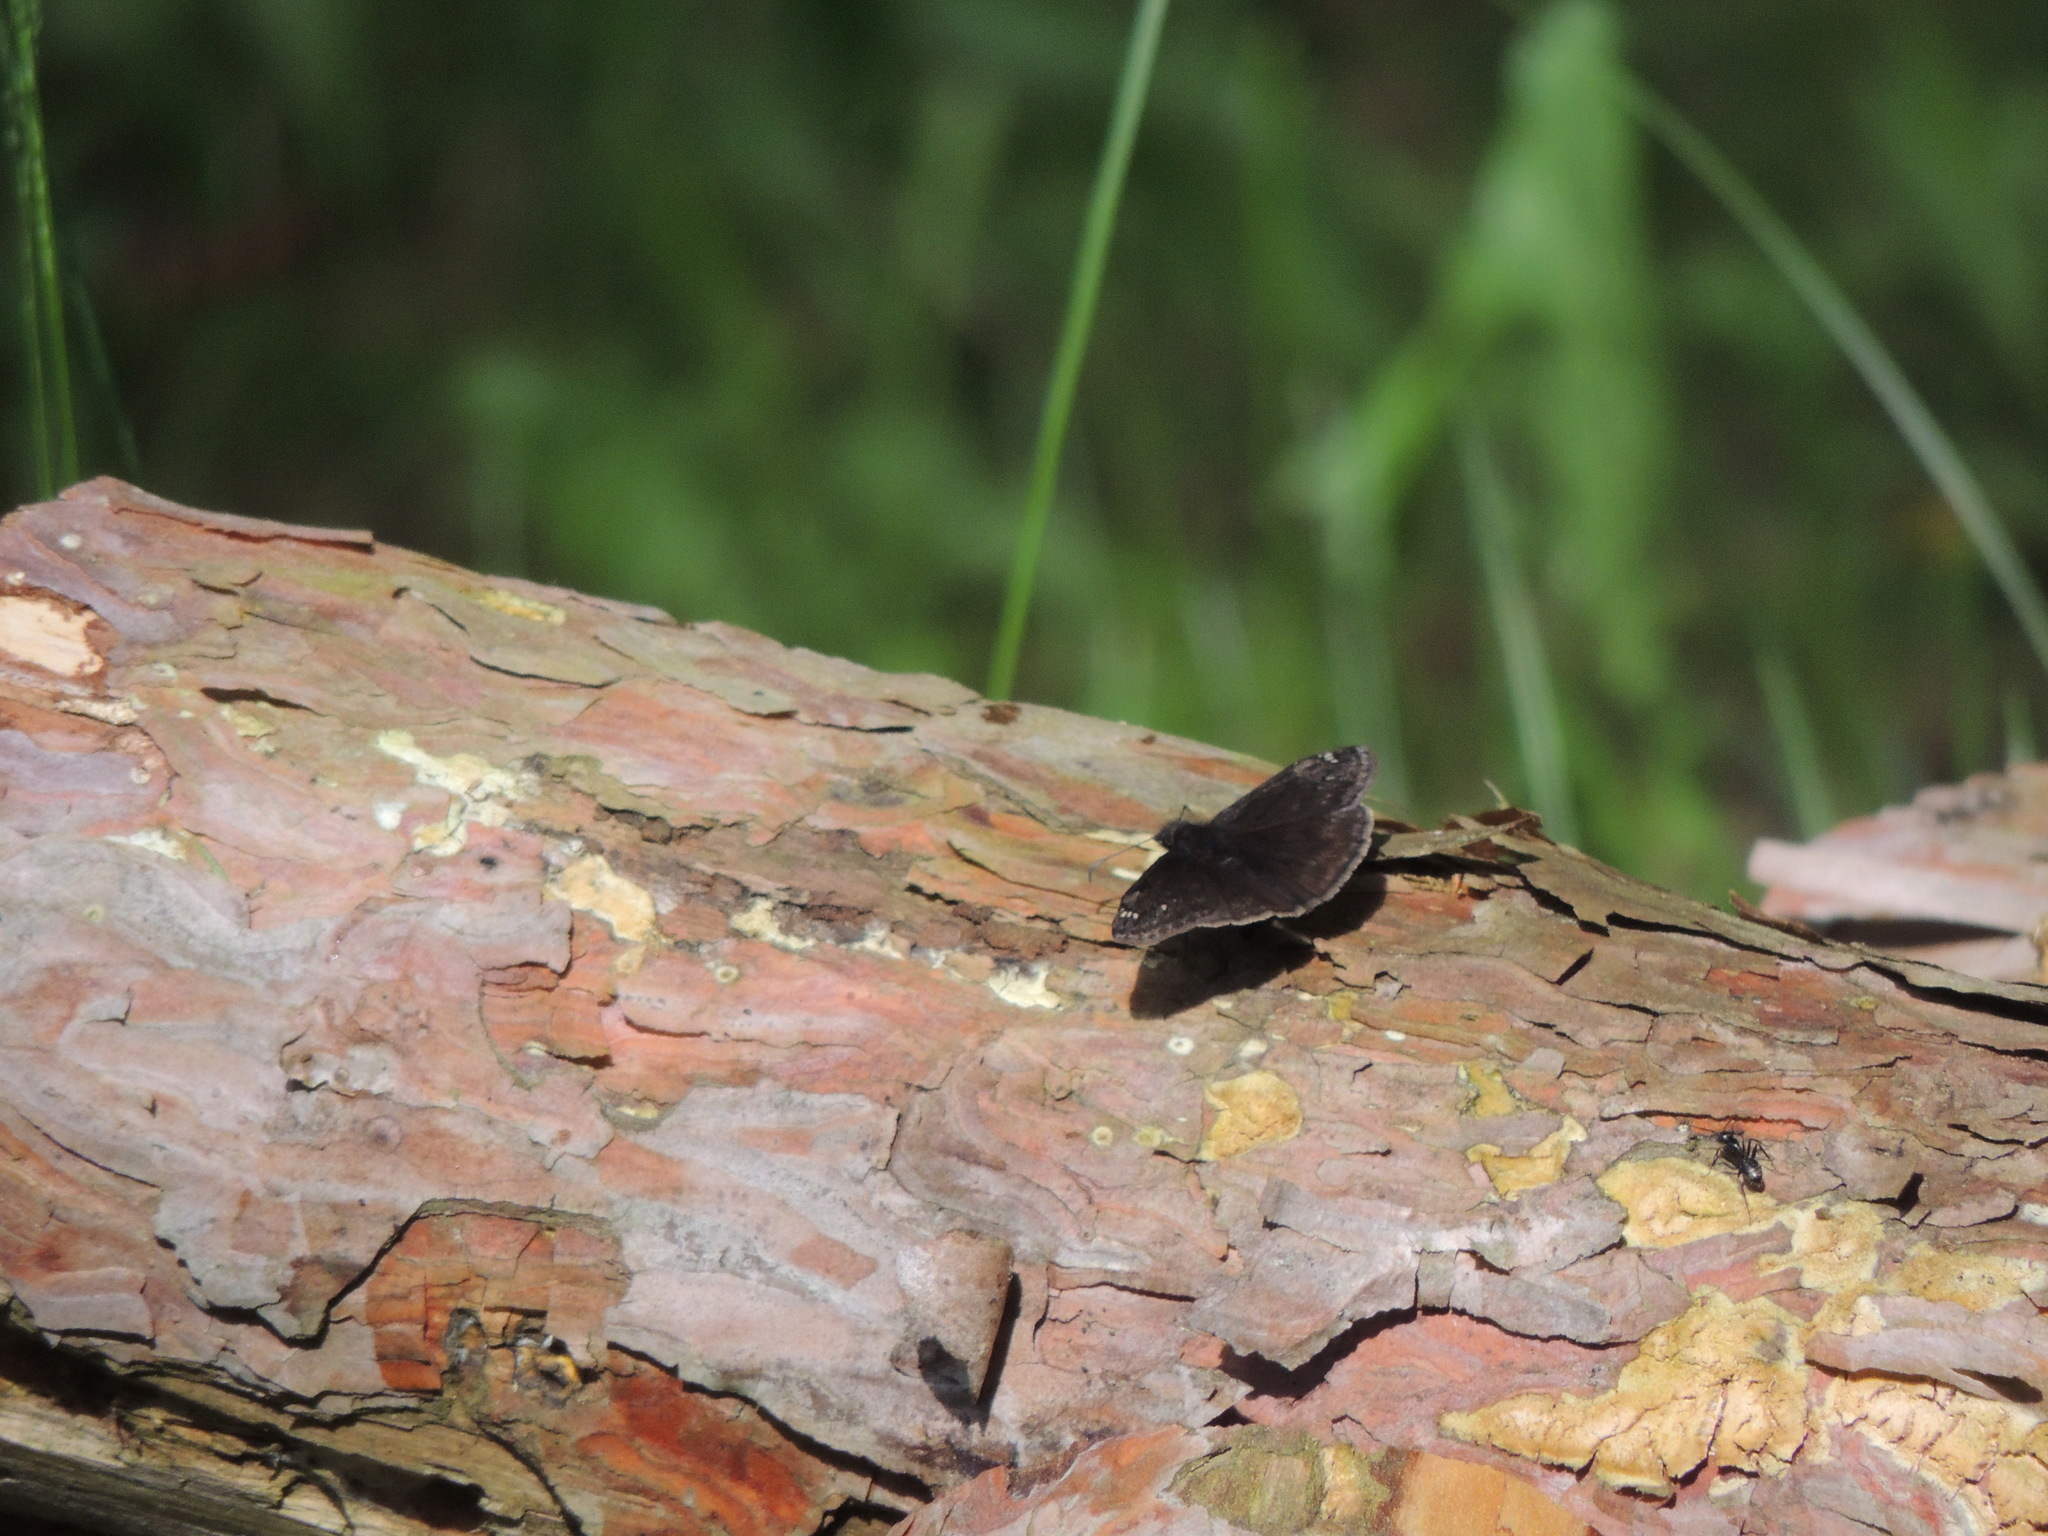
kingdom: Animalia
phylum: Arthropoda
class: Insecta
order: Lepidoptera
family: Hesperiidae
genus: Erynnis
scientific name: Erynnis juvenalis
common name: Juvenal's duskywing
